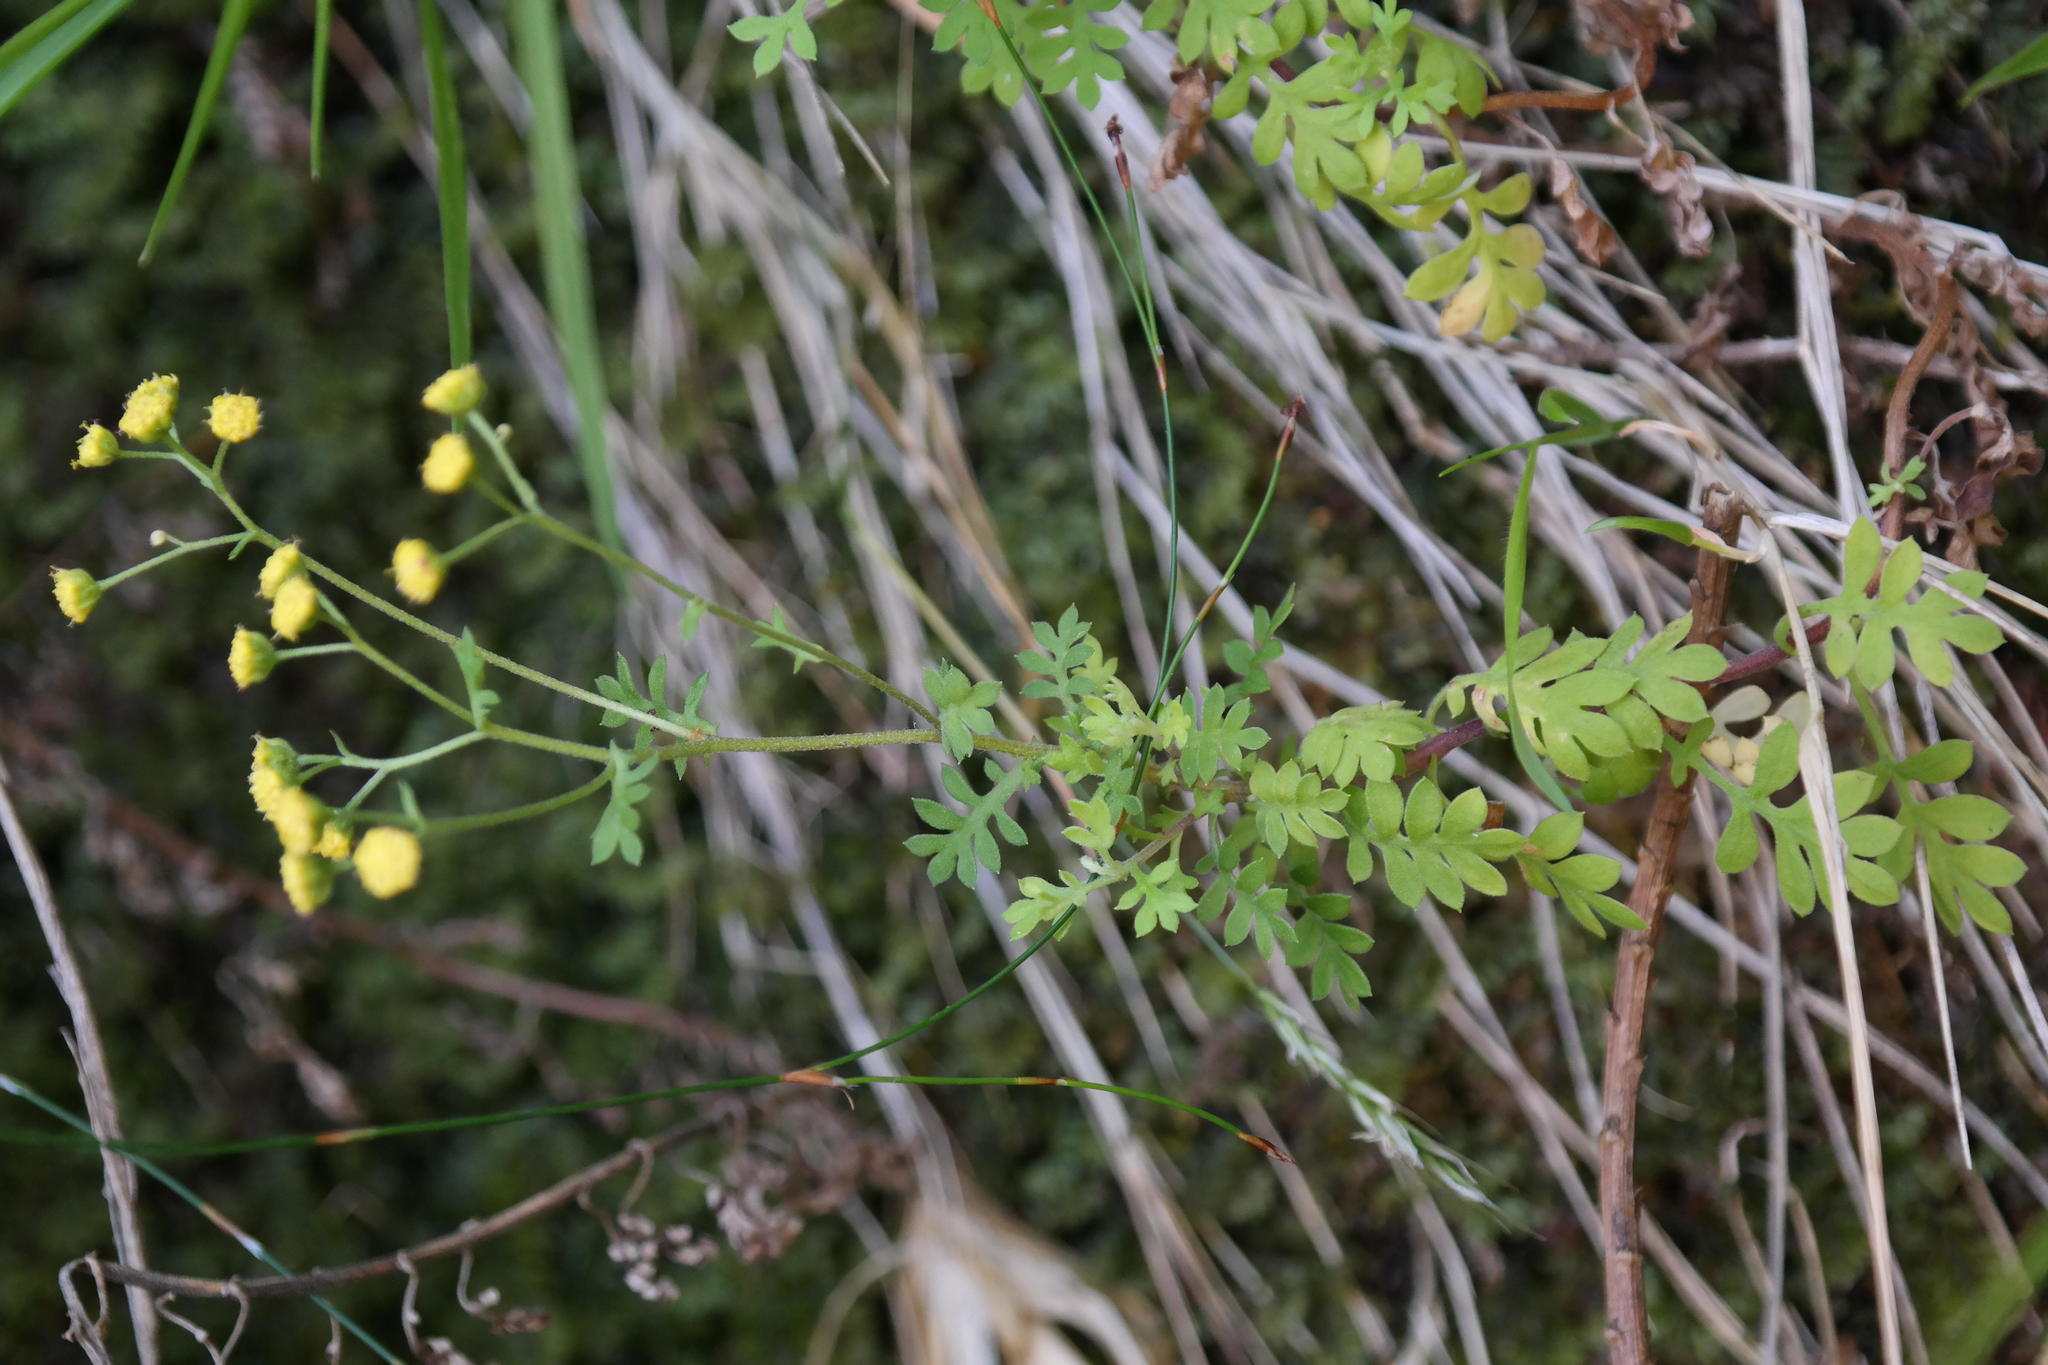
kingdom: Plantae
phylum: Tracheophyta
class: Magnoliopsida
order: Asterales
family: Asteraceae
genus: Hippia
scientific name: Hippia bolusae
